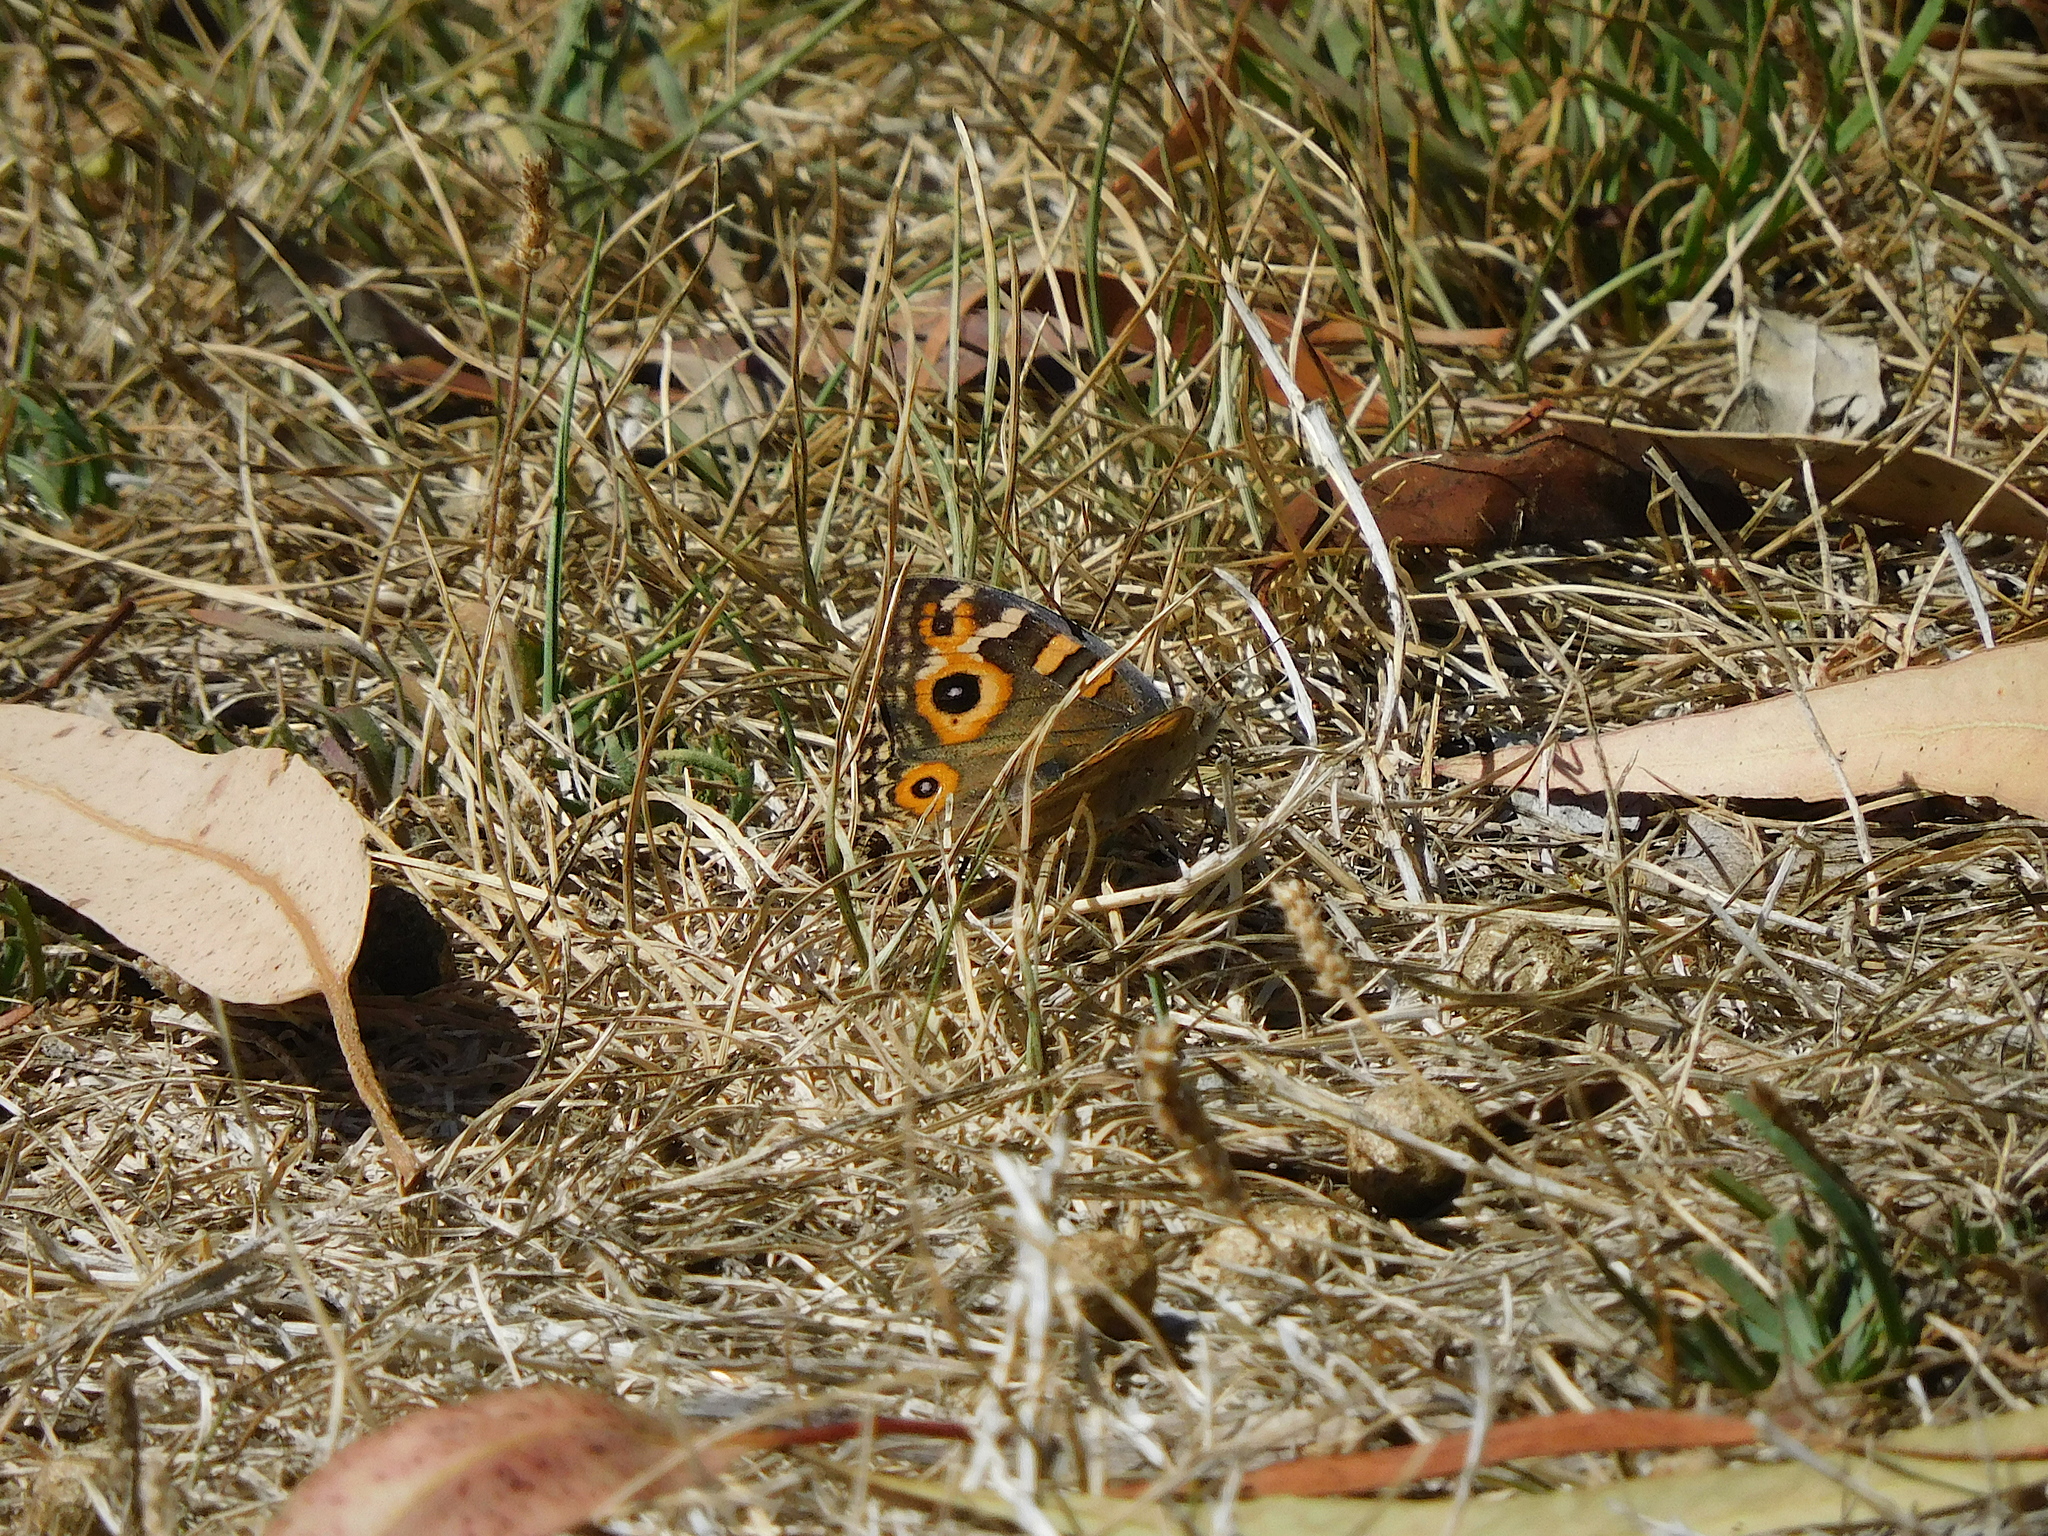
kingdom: Animalia
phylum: Arthropoda
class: Insecta
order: Lepidoptera
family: Nymphalidae
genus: Junonia
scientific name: Junonia villida
